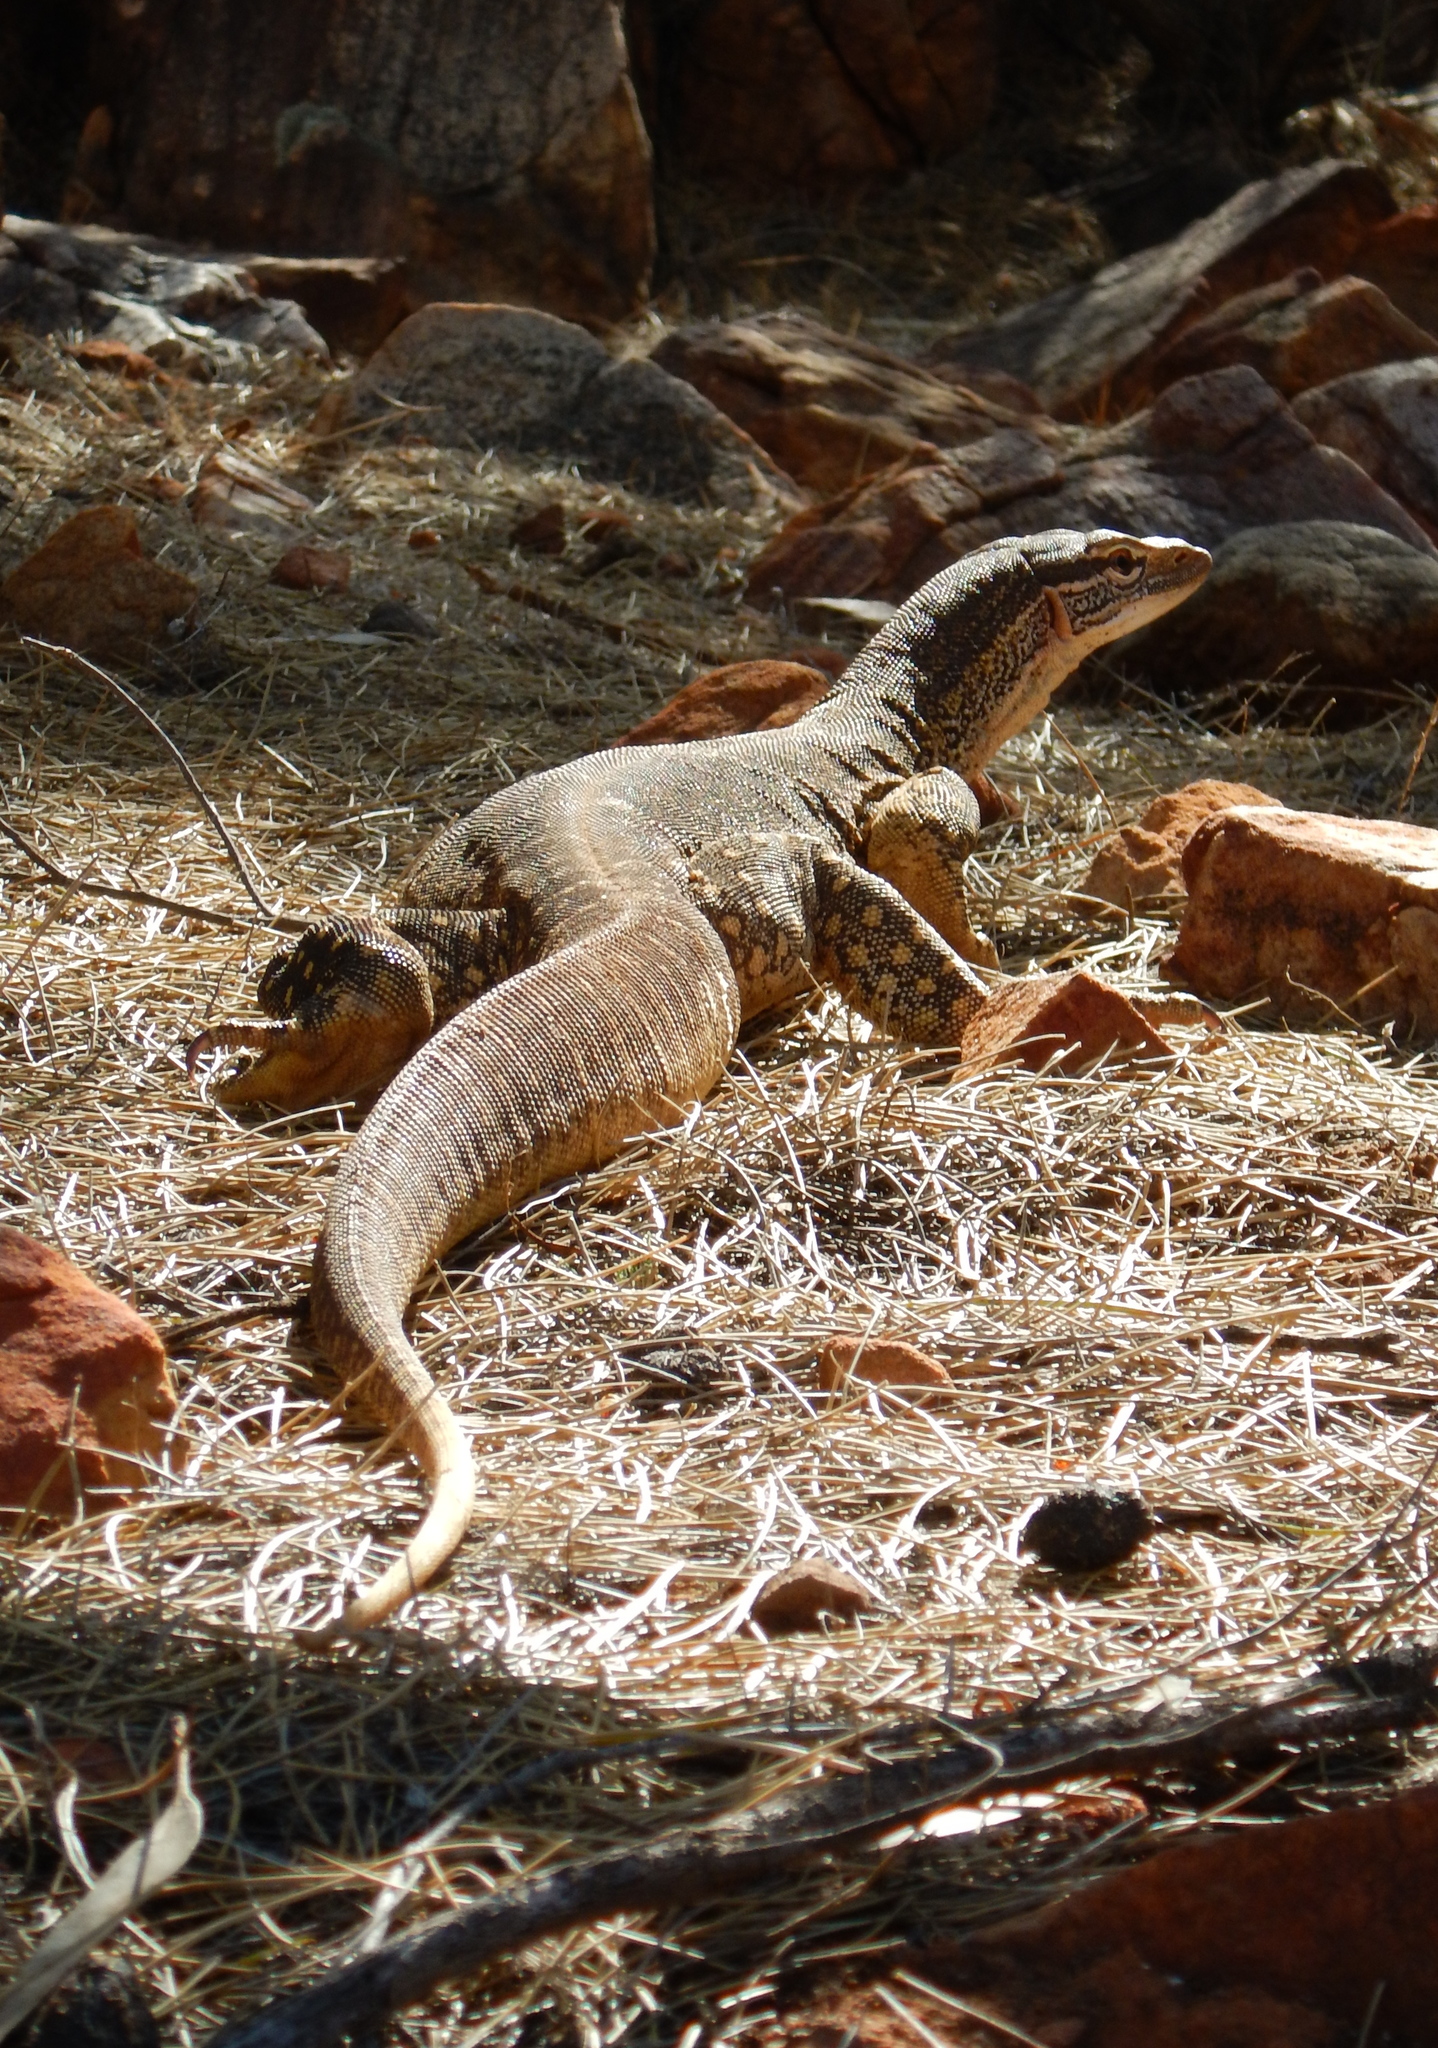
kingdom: Animalia
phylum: Chordata
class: Squamata
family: Varanidae
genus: Varanus
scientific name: Varanus gouldii
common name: Gould's goanna
